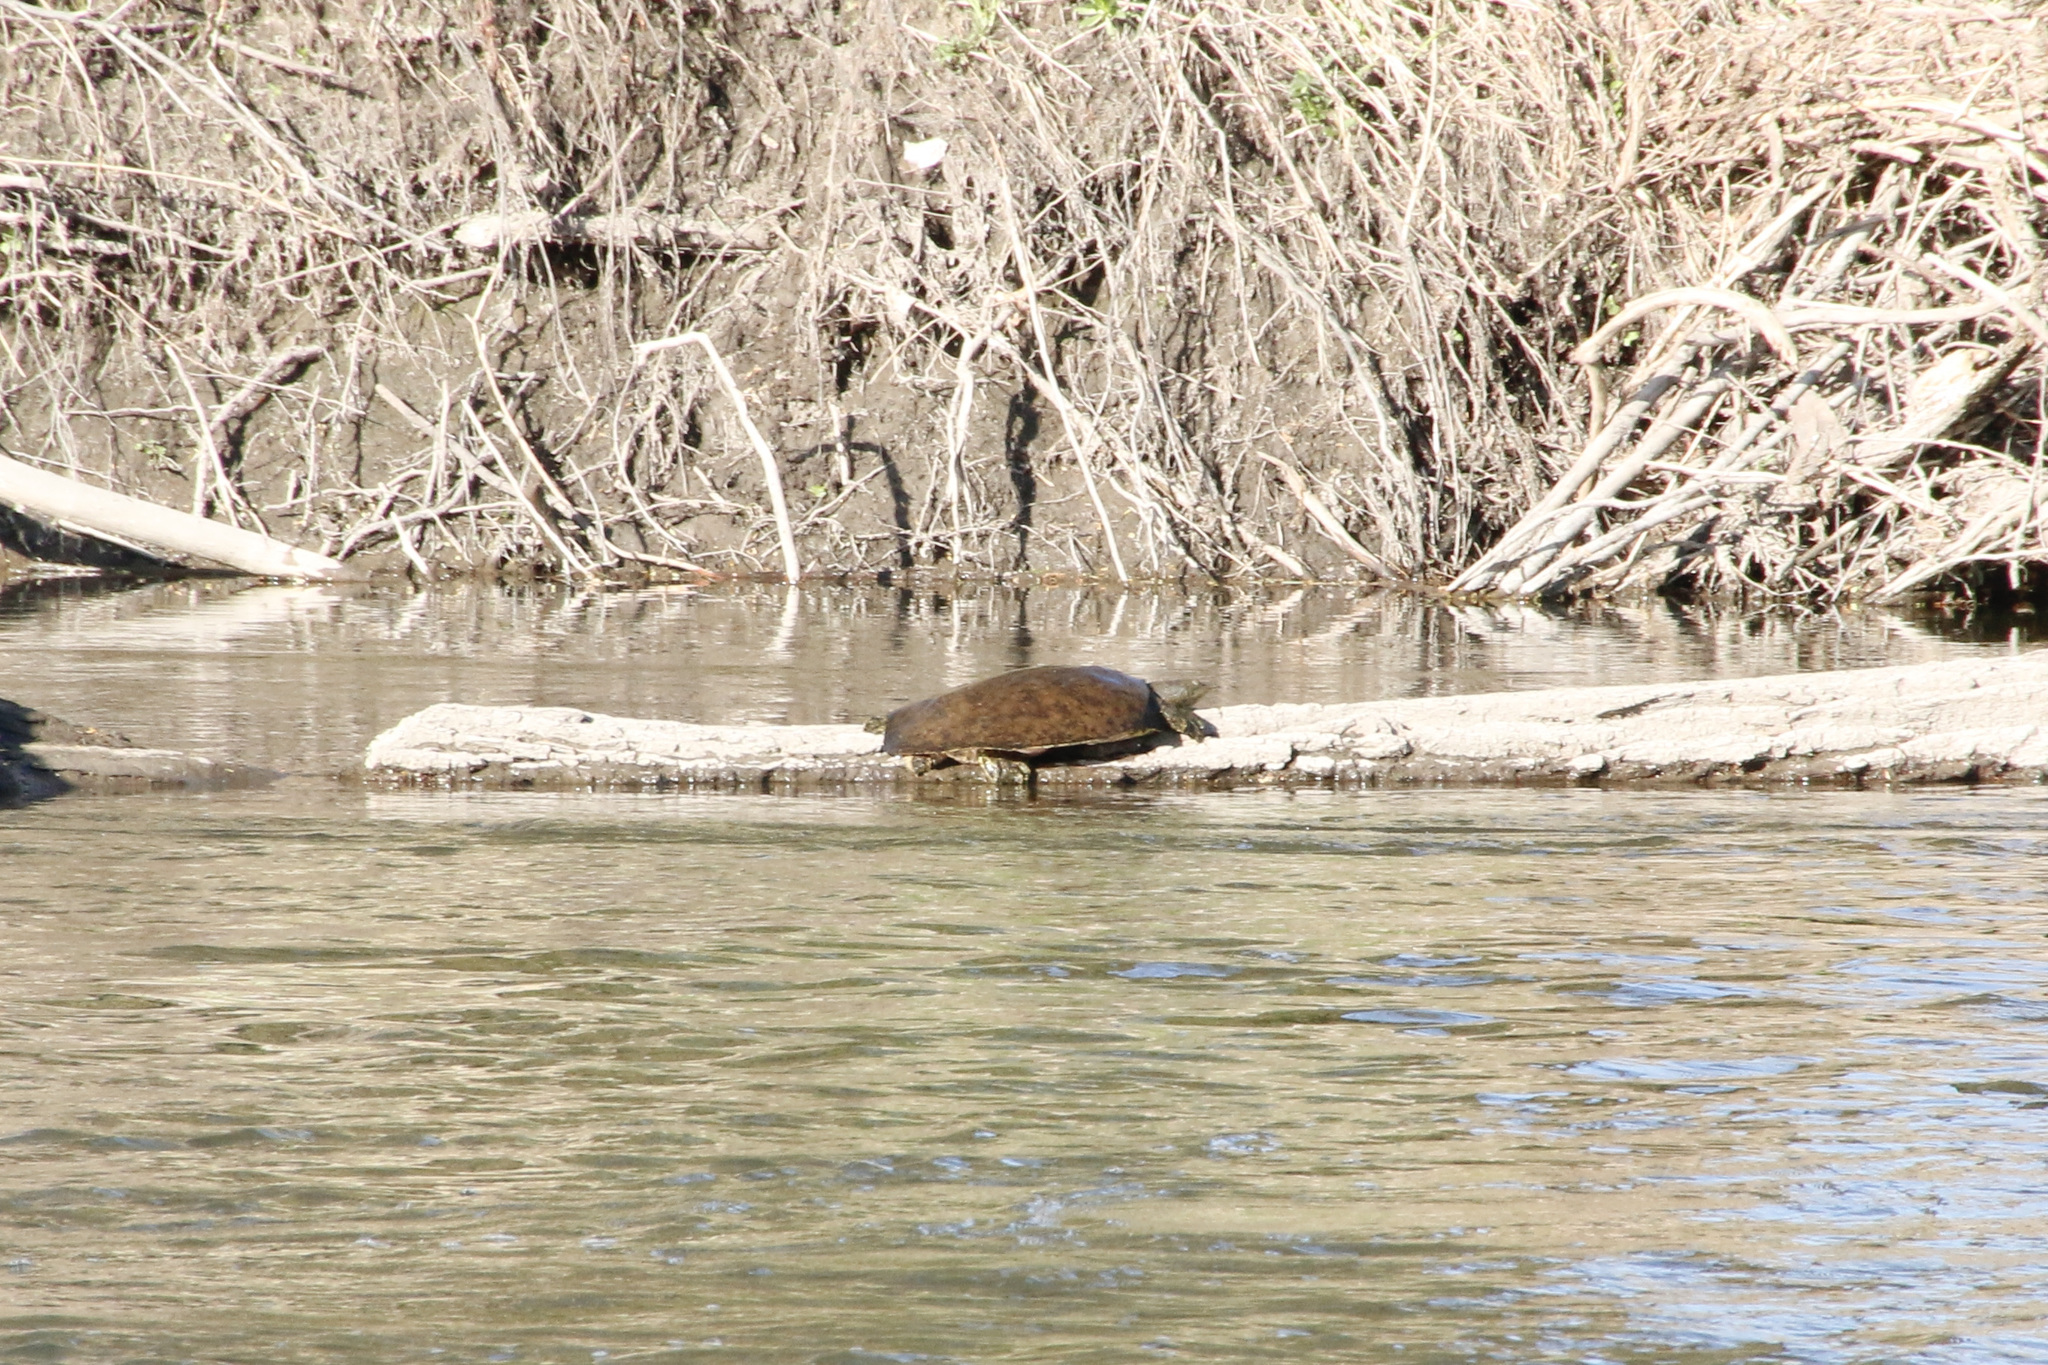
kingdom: Animalia
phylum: Chordata
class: Testudines
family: Trionychidae
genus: Apalone
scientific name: Apalone spinifera
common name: Spiny softshell turtle
